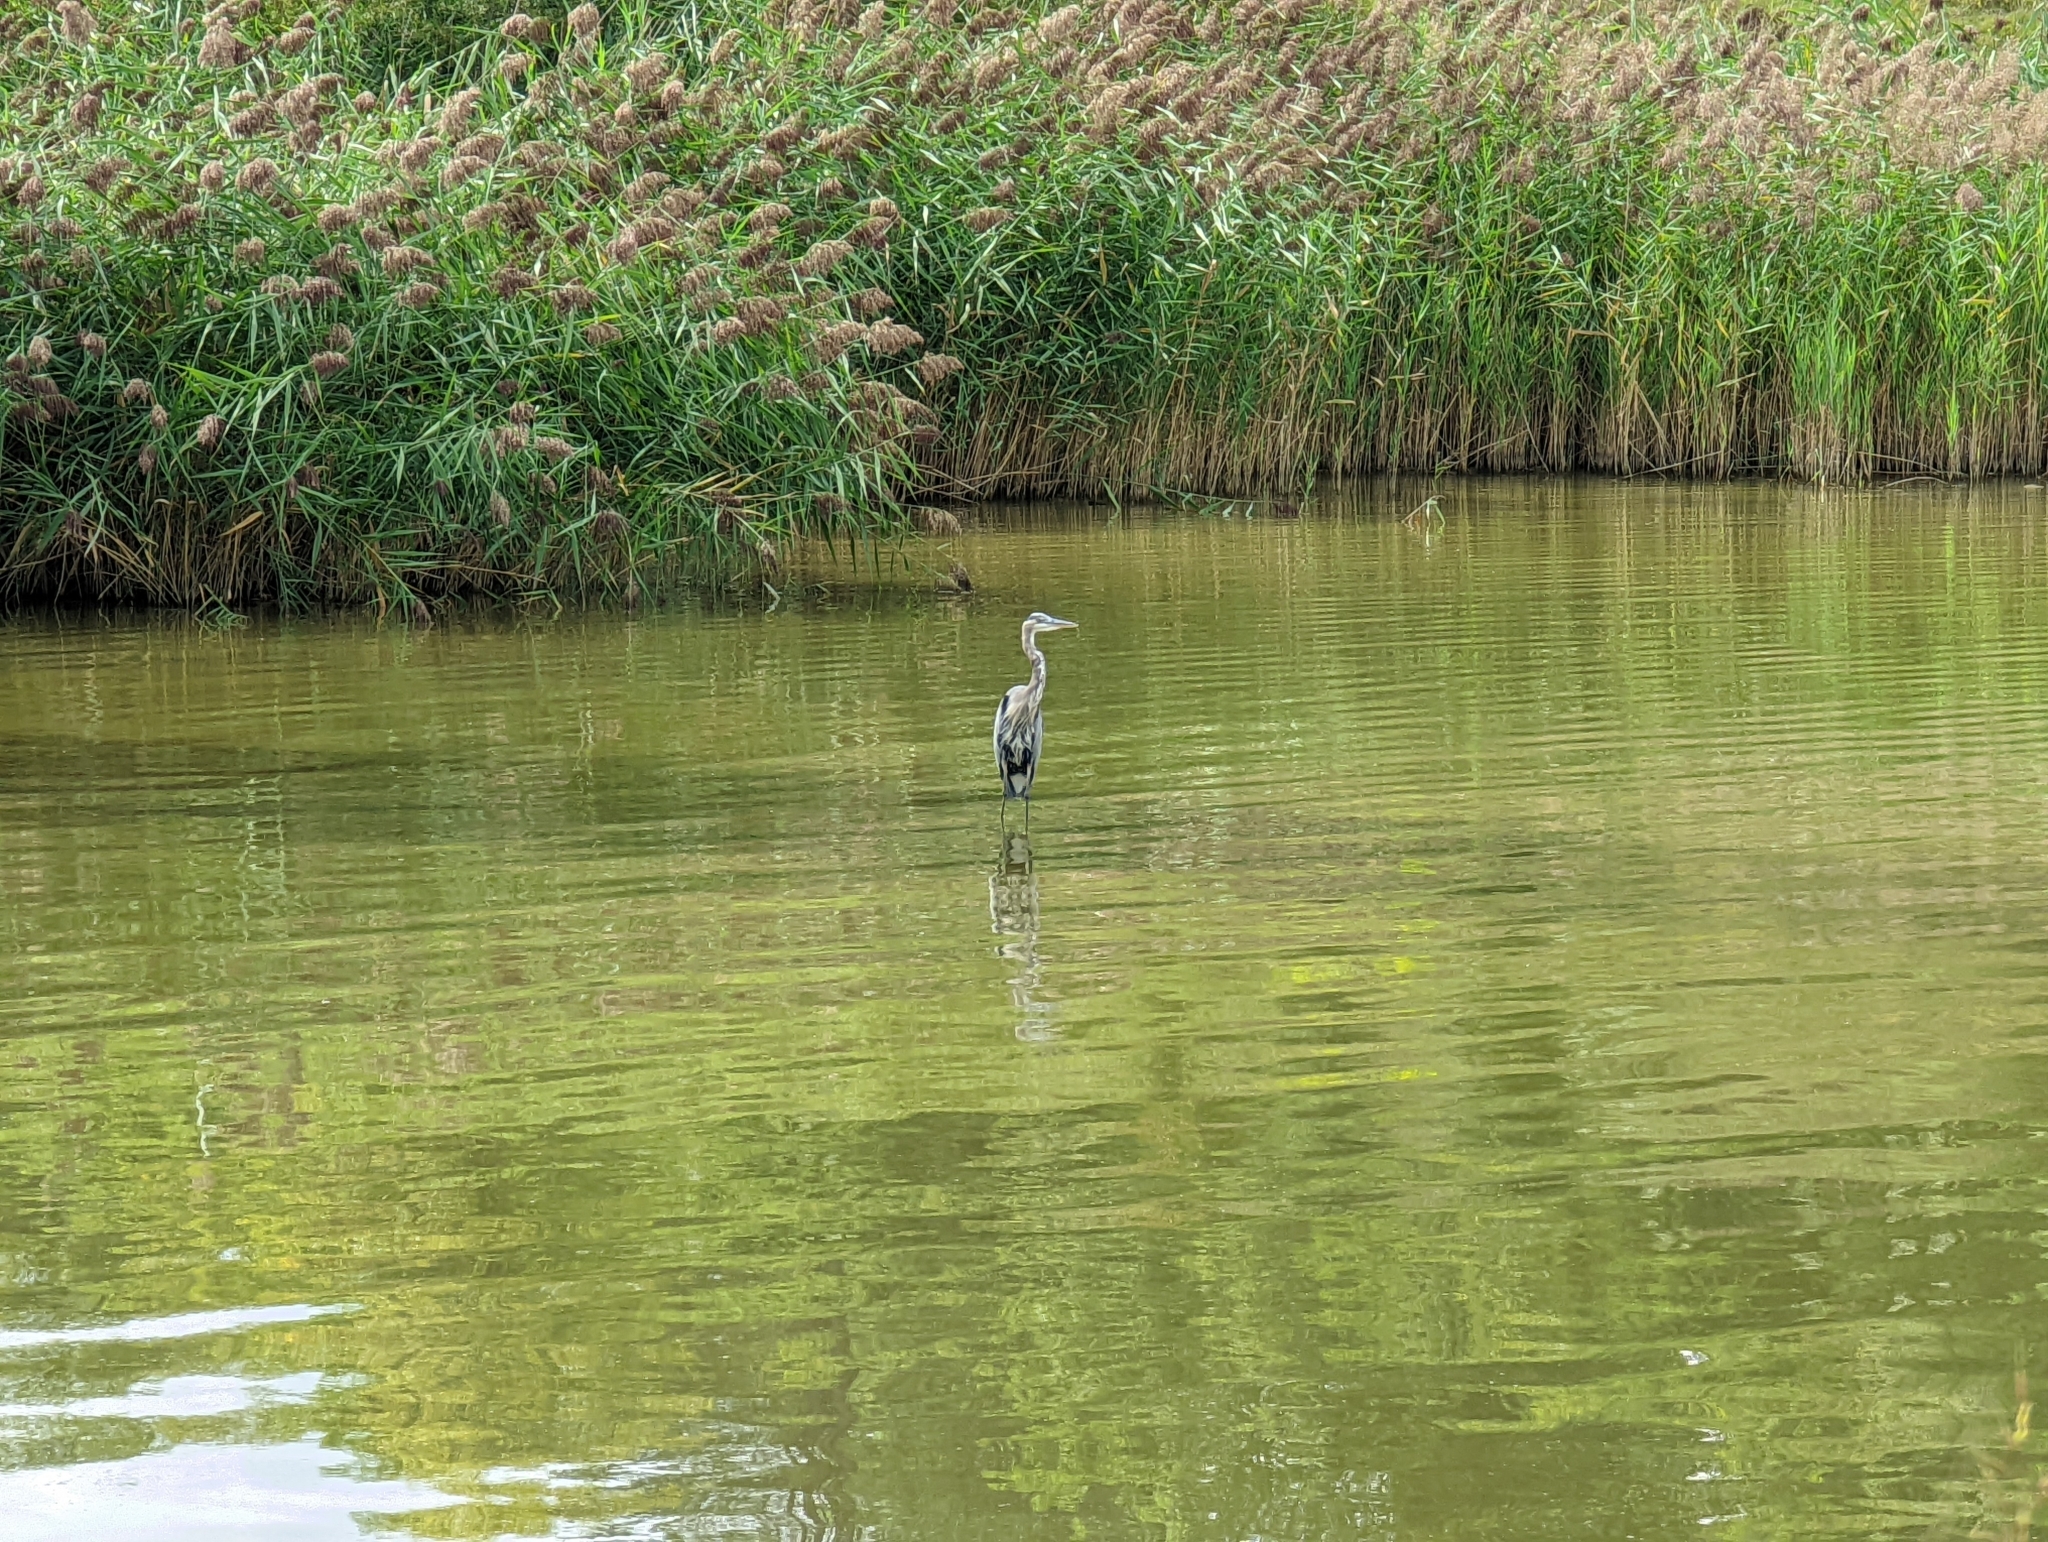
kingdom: Animalia
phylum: Chordata
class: Aves
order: Pelecaniformes
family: Ardeidae
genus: Ardea
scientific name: Ardea herodias
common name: Great blue heron
